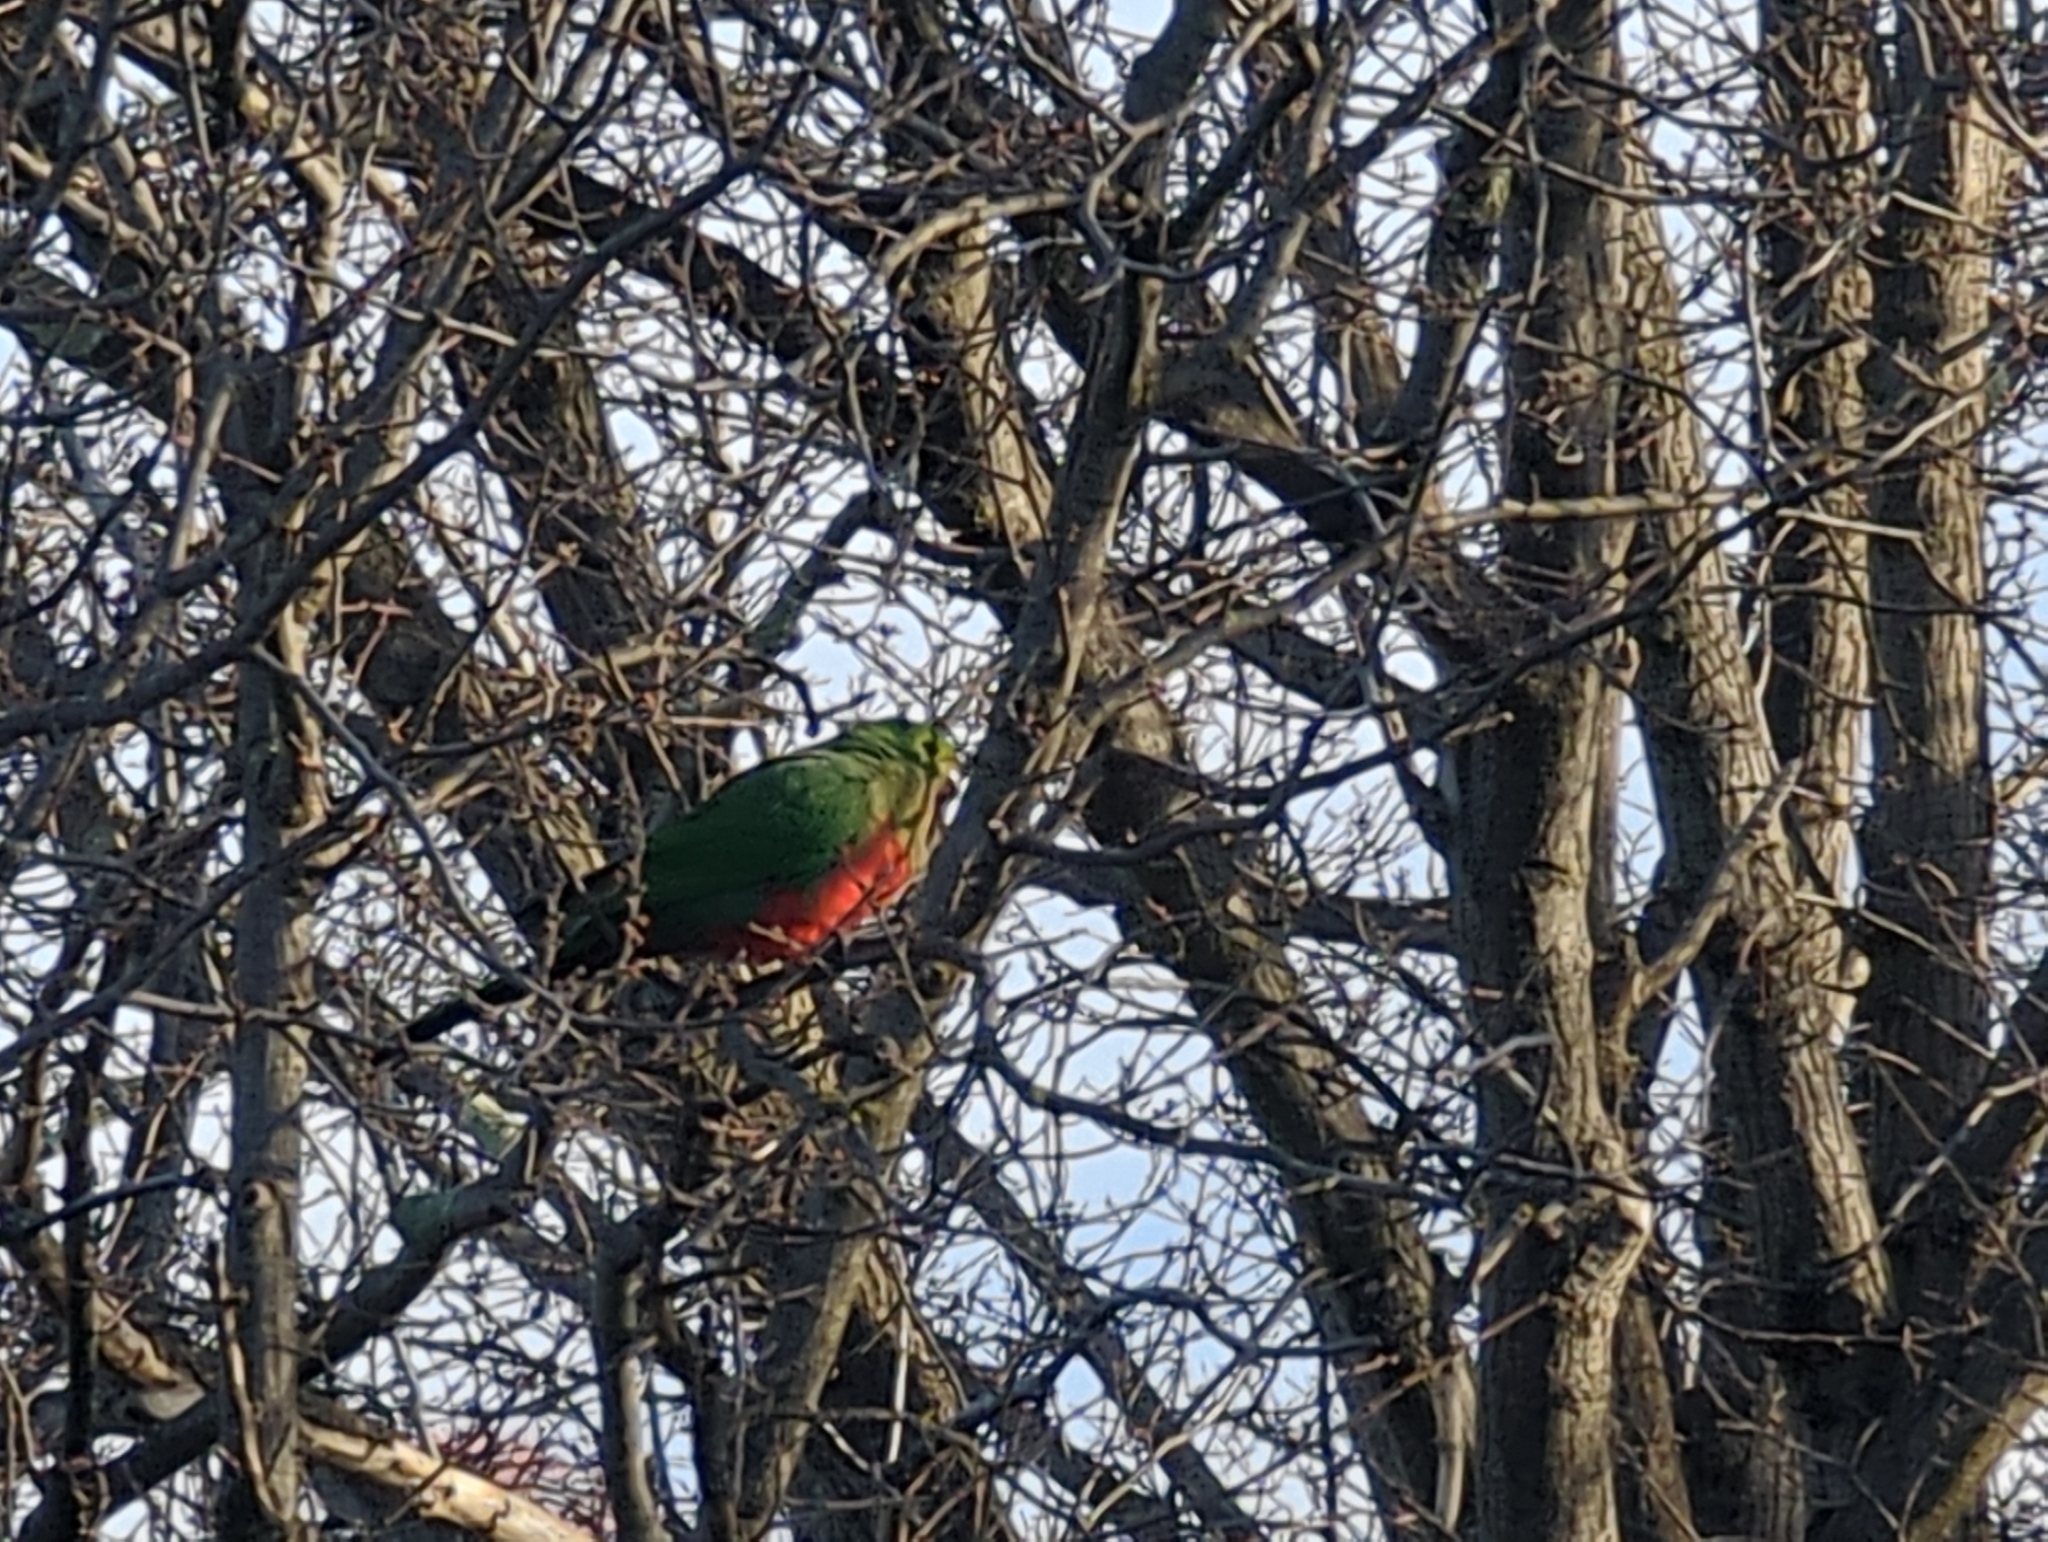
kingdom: Animalia
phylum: Chordata
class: Aves
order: Psittaciformes
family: Psittacidae
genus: Alisterus
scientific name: Alisterus scapularis
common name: Australian king parrot
